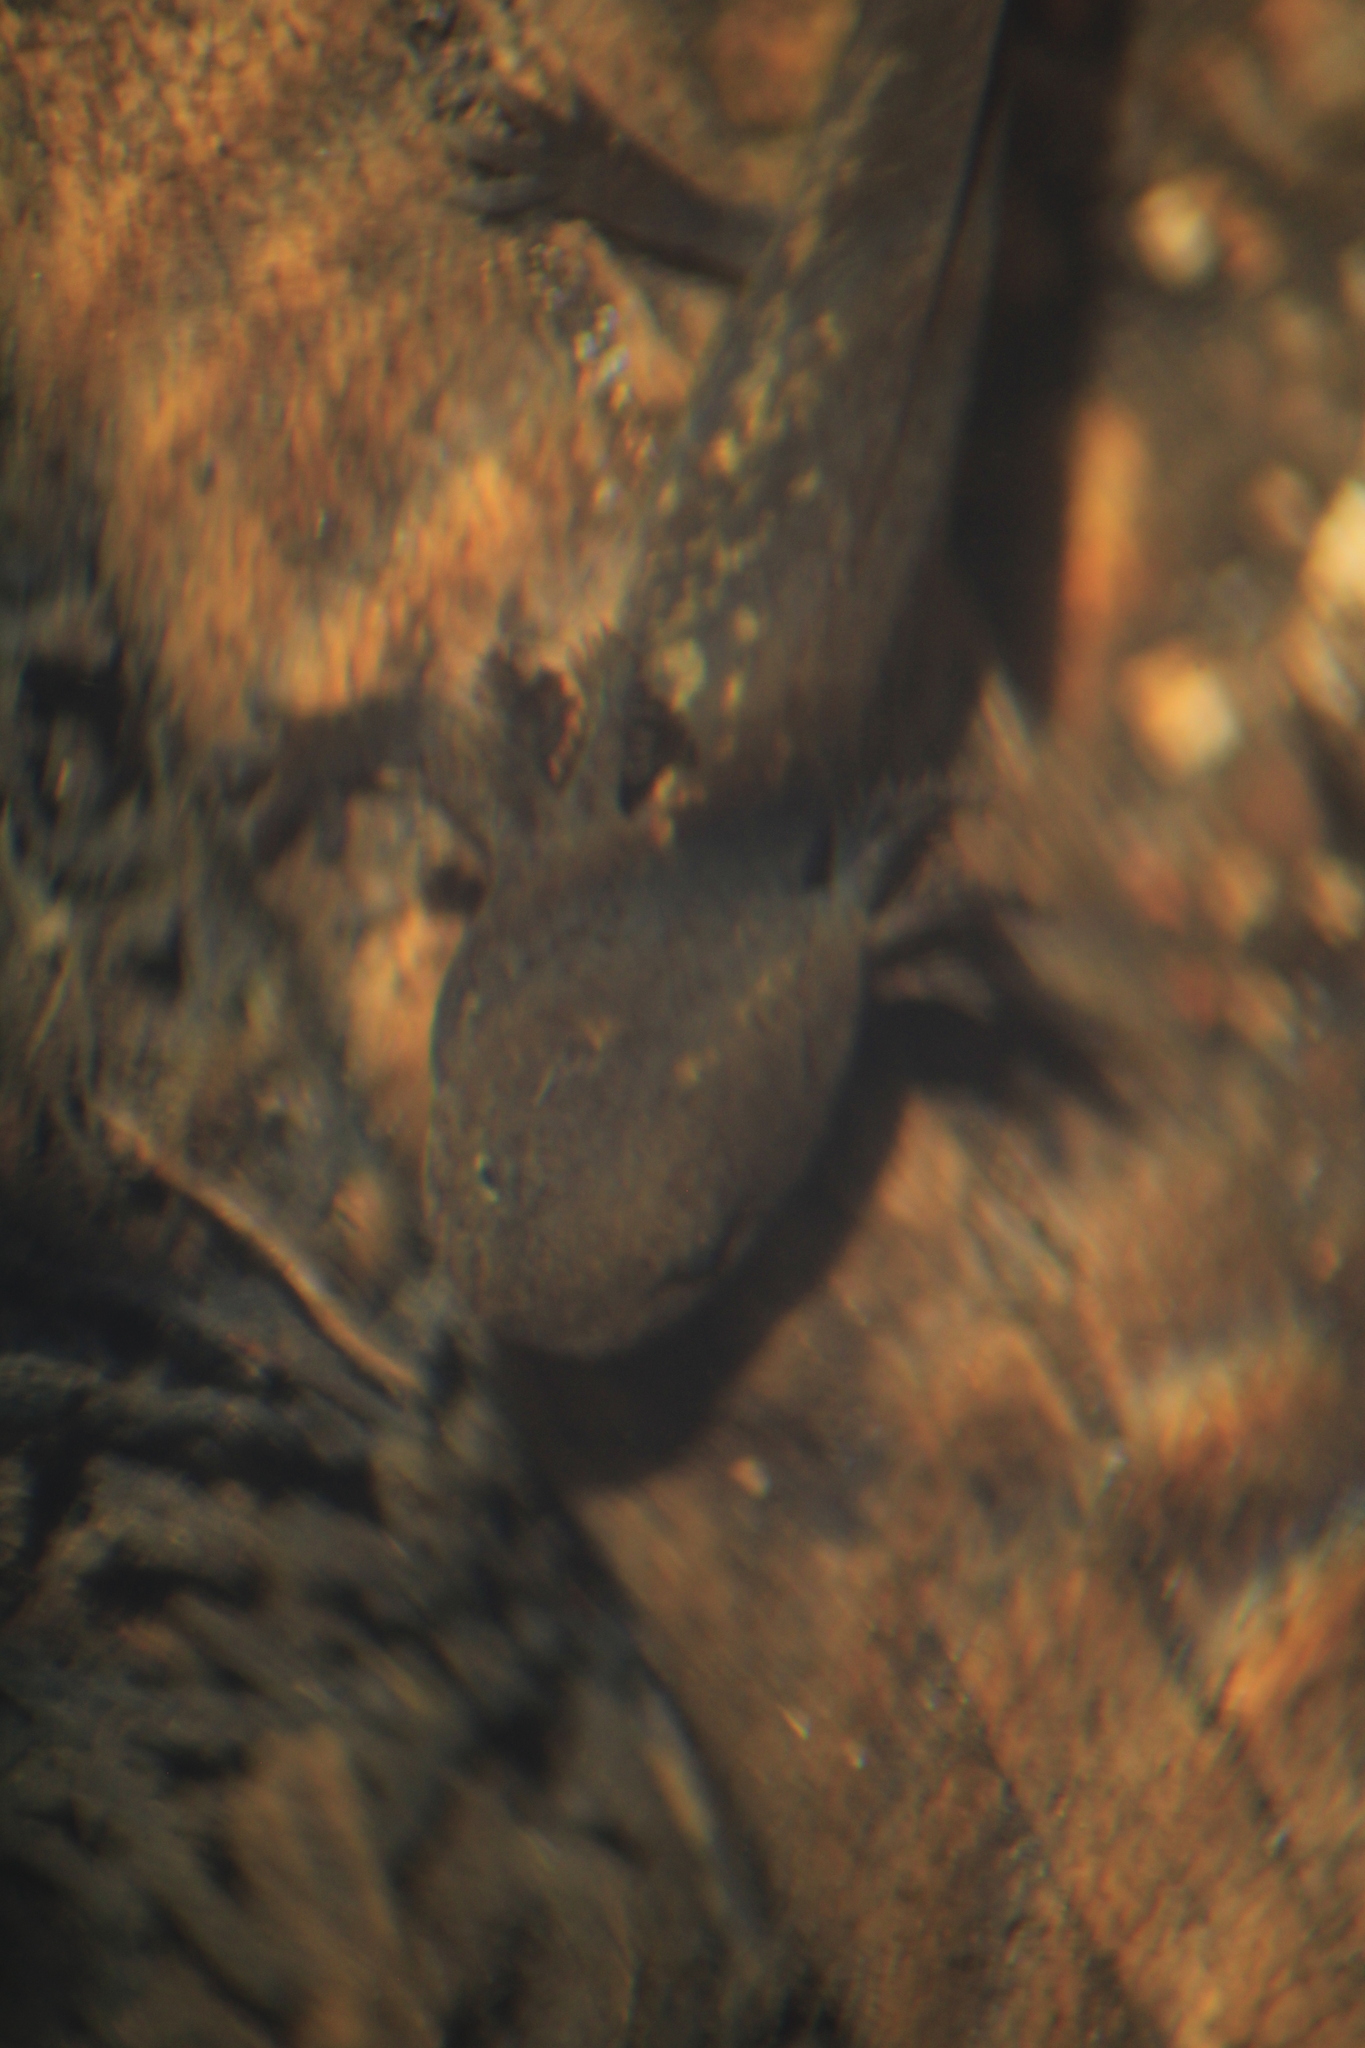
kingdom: Animalia
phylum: Chordata
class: Amphibia
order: Caudata
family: Ambystomatidae
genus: Ambystoma
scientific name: Ambystoma rivulare
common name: Michoacan stream salamander
